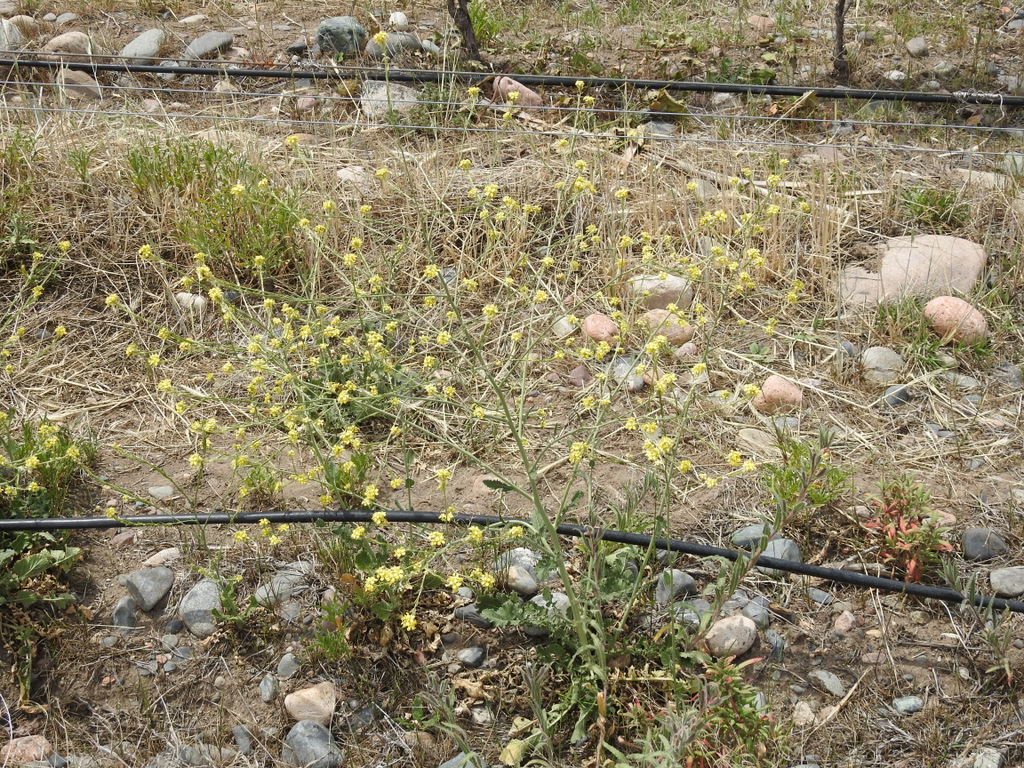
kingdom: Plantae
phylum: Tracheophyta
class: Magnoliopsida
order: Brassicales
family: Brassicaceae
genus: Hirschfeldia
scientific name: Hirschfeldia incana
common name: Hoary mustard
